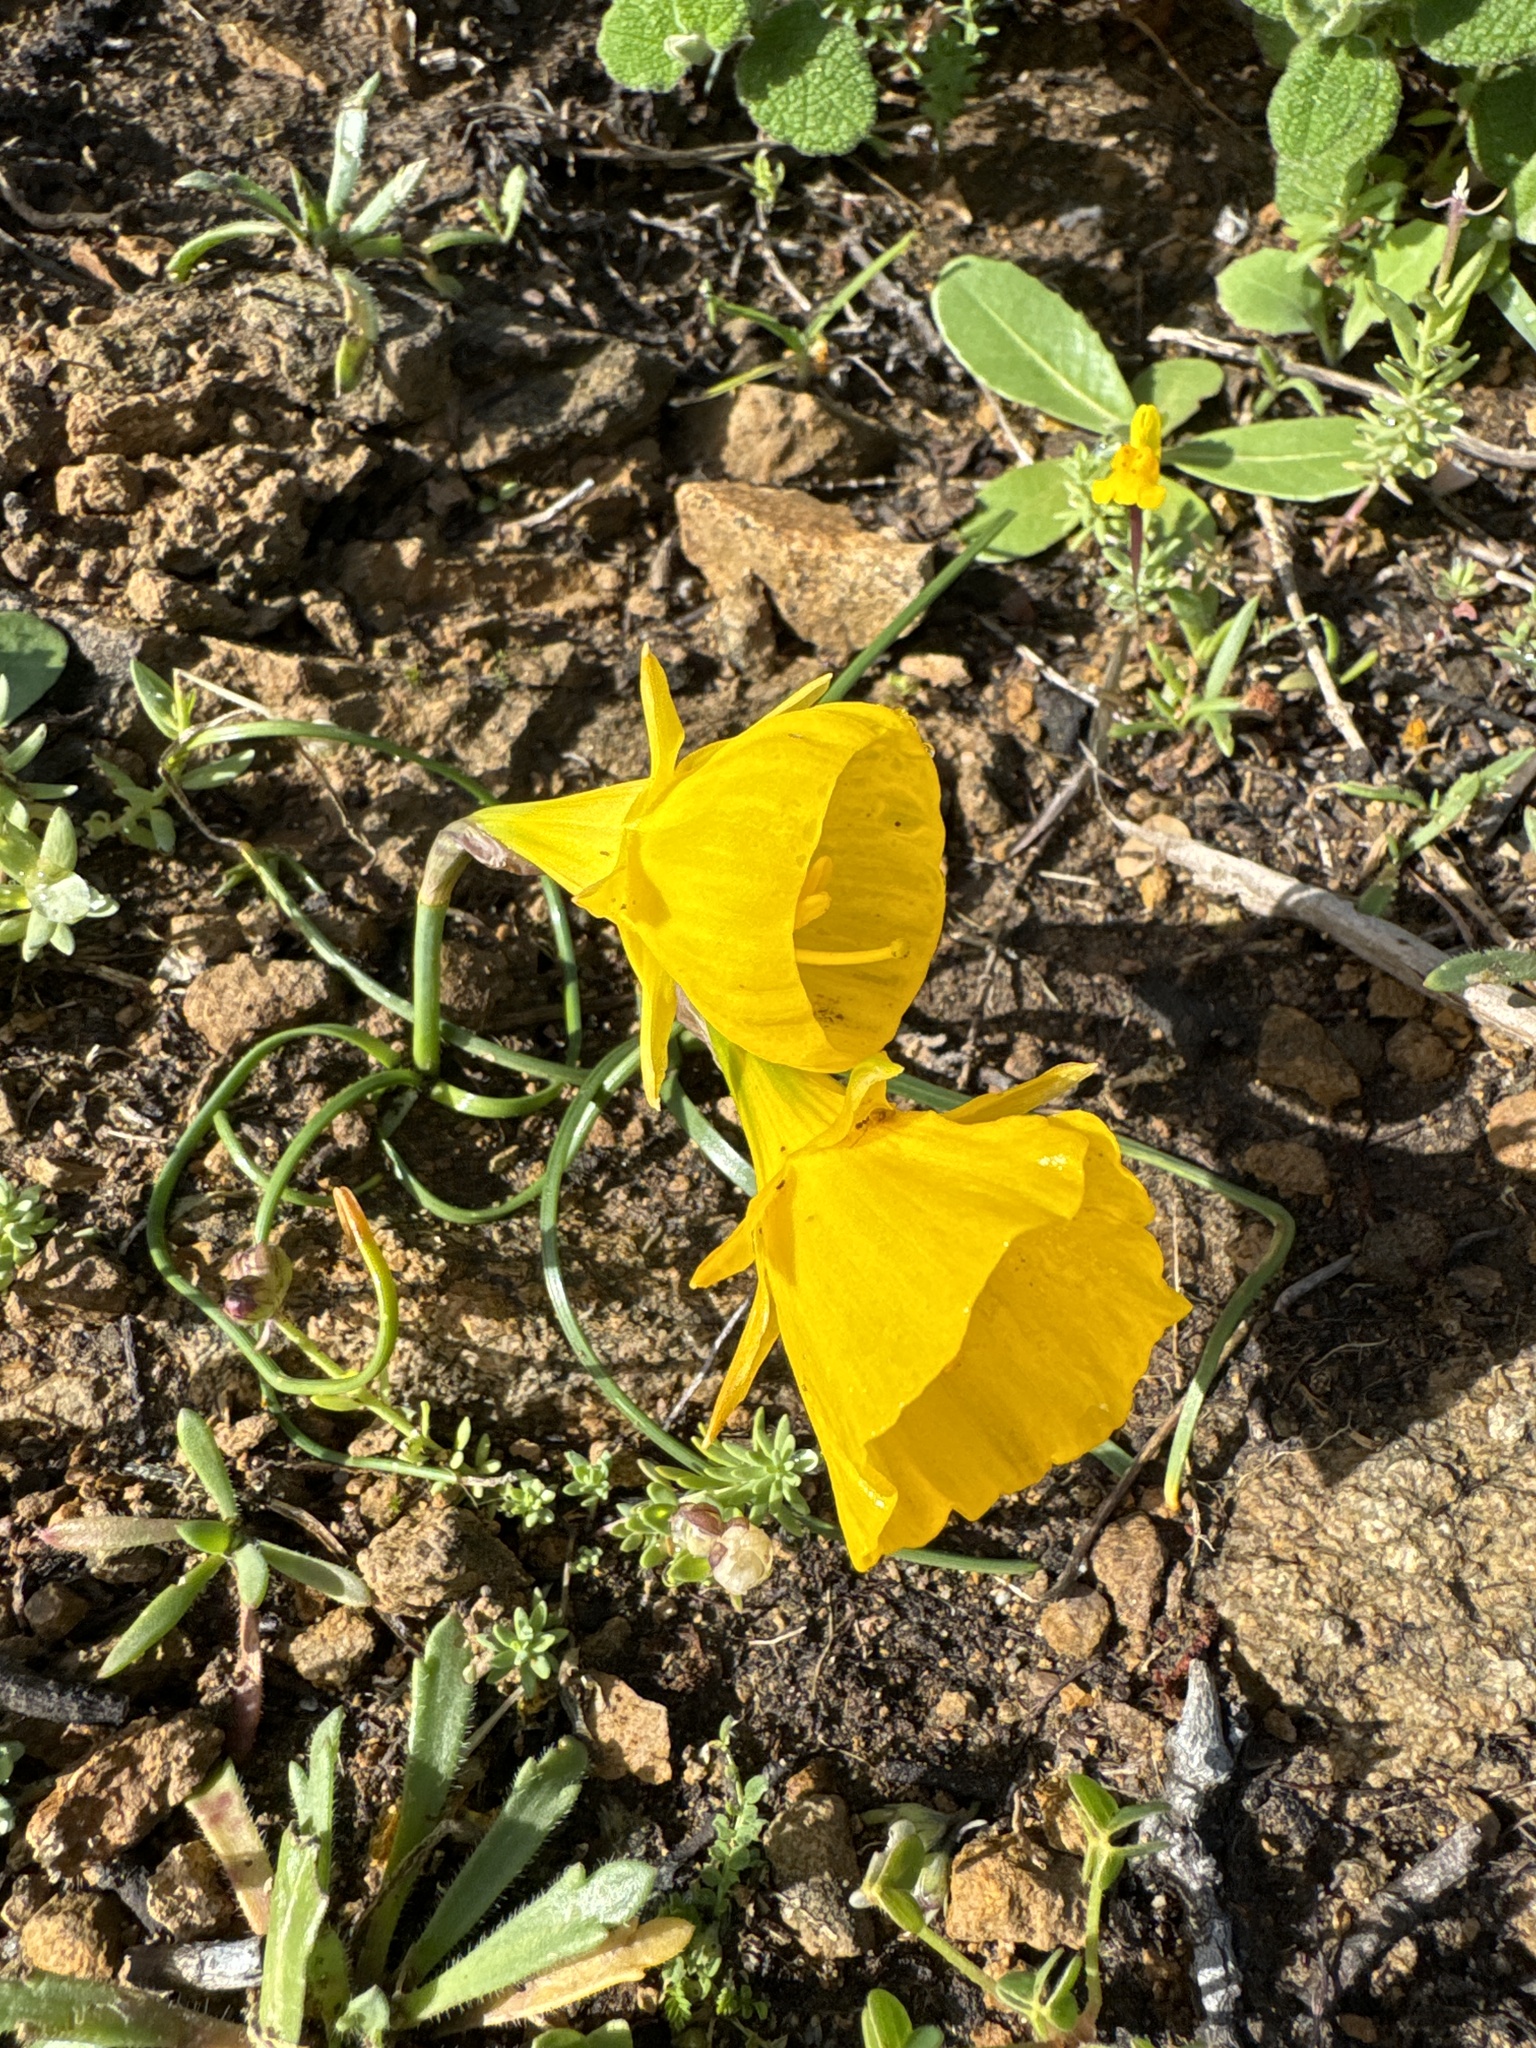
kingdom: Plantae
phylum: Tracheophyta
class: Liliopsida
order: Asparagales
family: Amaryllidaceae
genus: Narcissus
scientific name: Narcissus obesus
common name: Hoop petticoat daffodil
